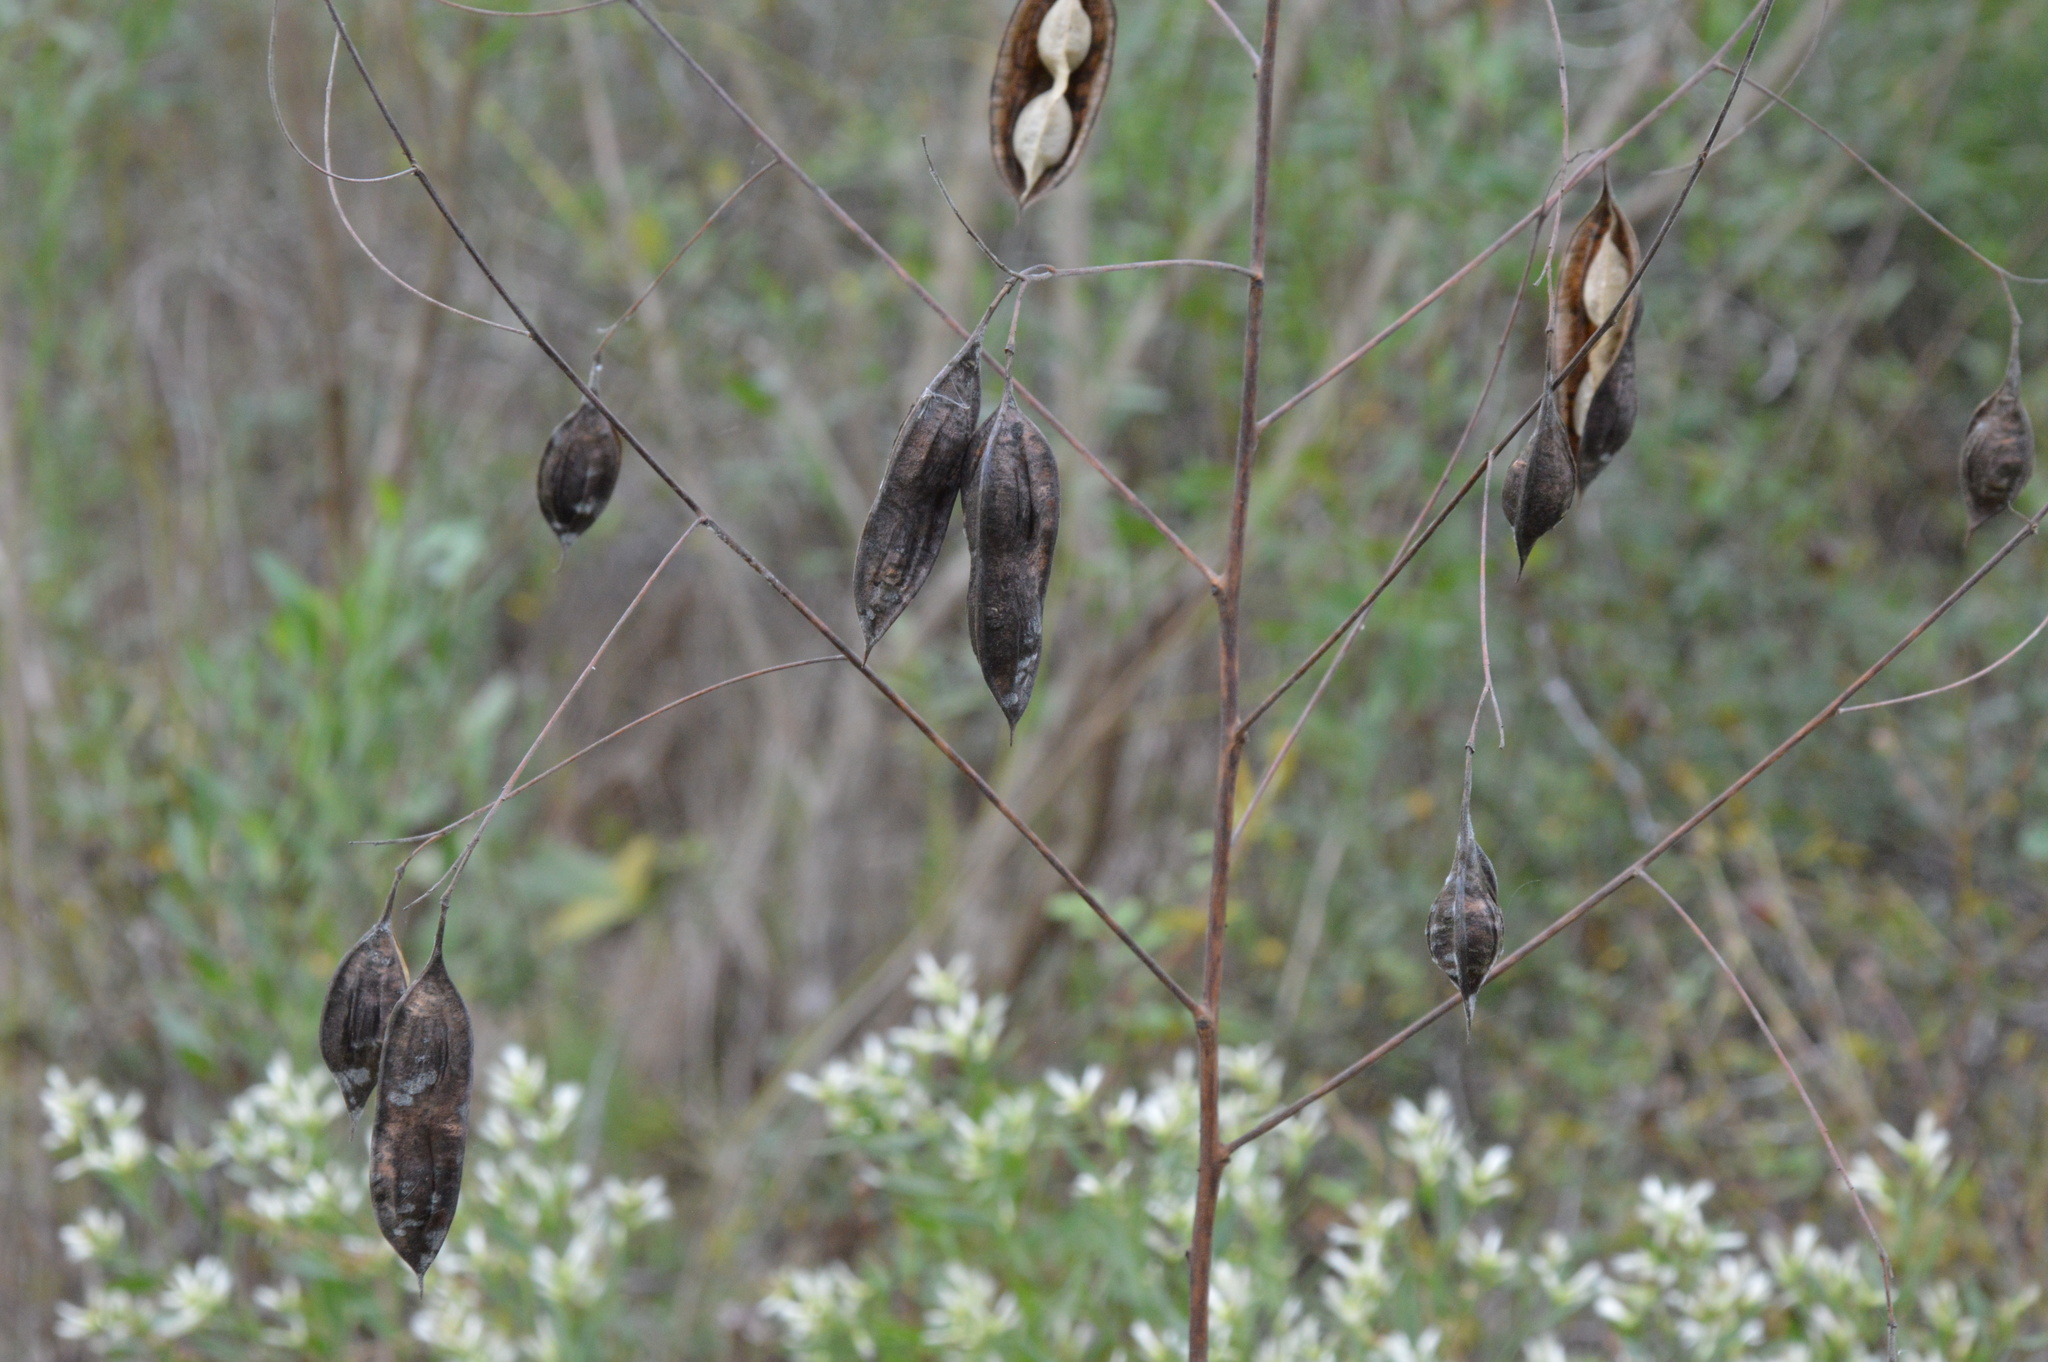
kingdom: Plantae
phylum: Tracheophyta
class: Magnoliopsida
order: Fabales
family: Fabaceae
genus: Sesbania
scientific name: Sesbania vesicaria
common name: Bagpod
